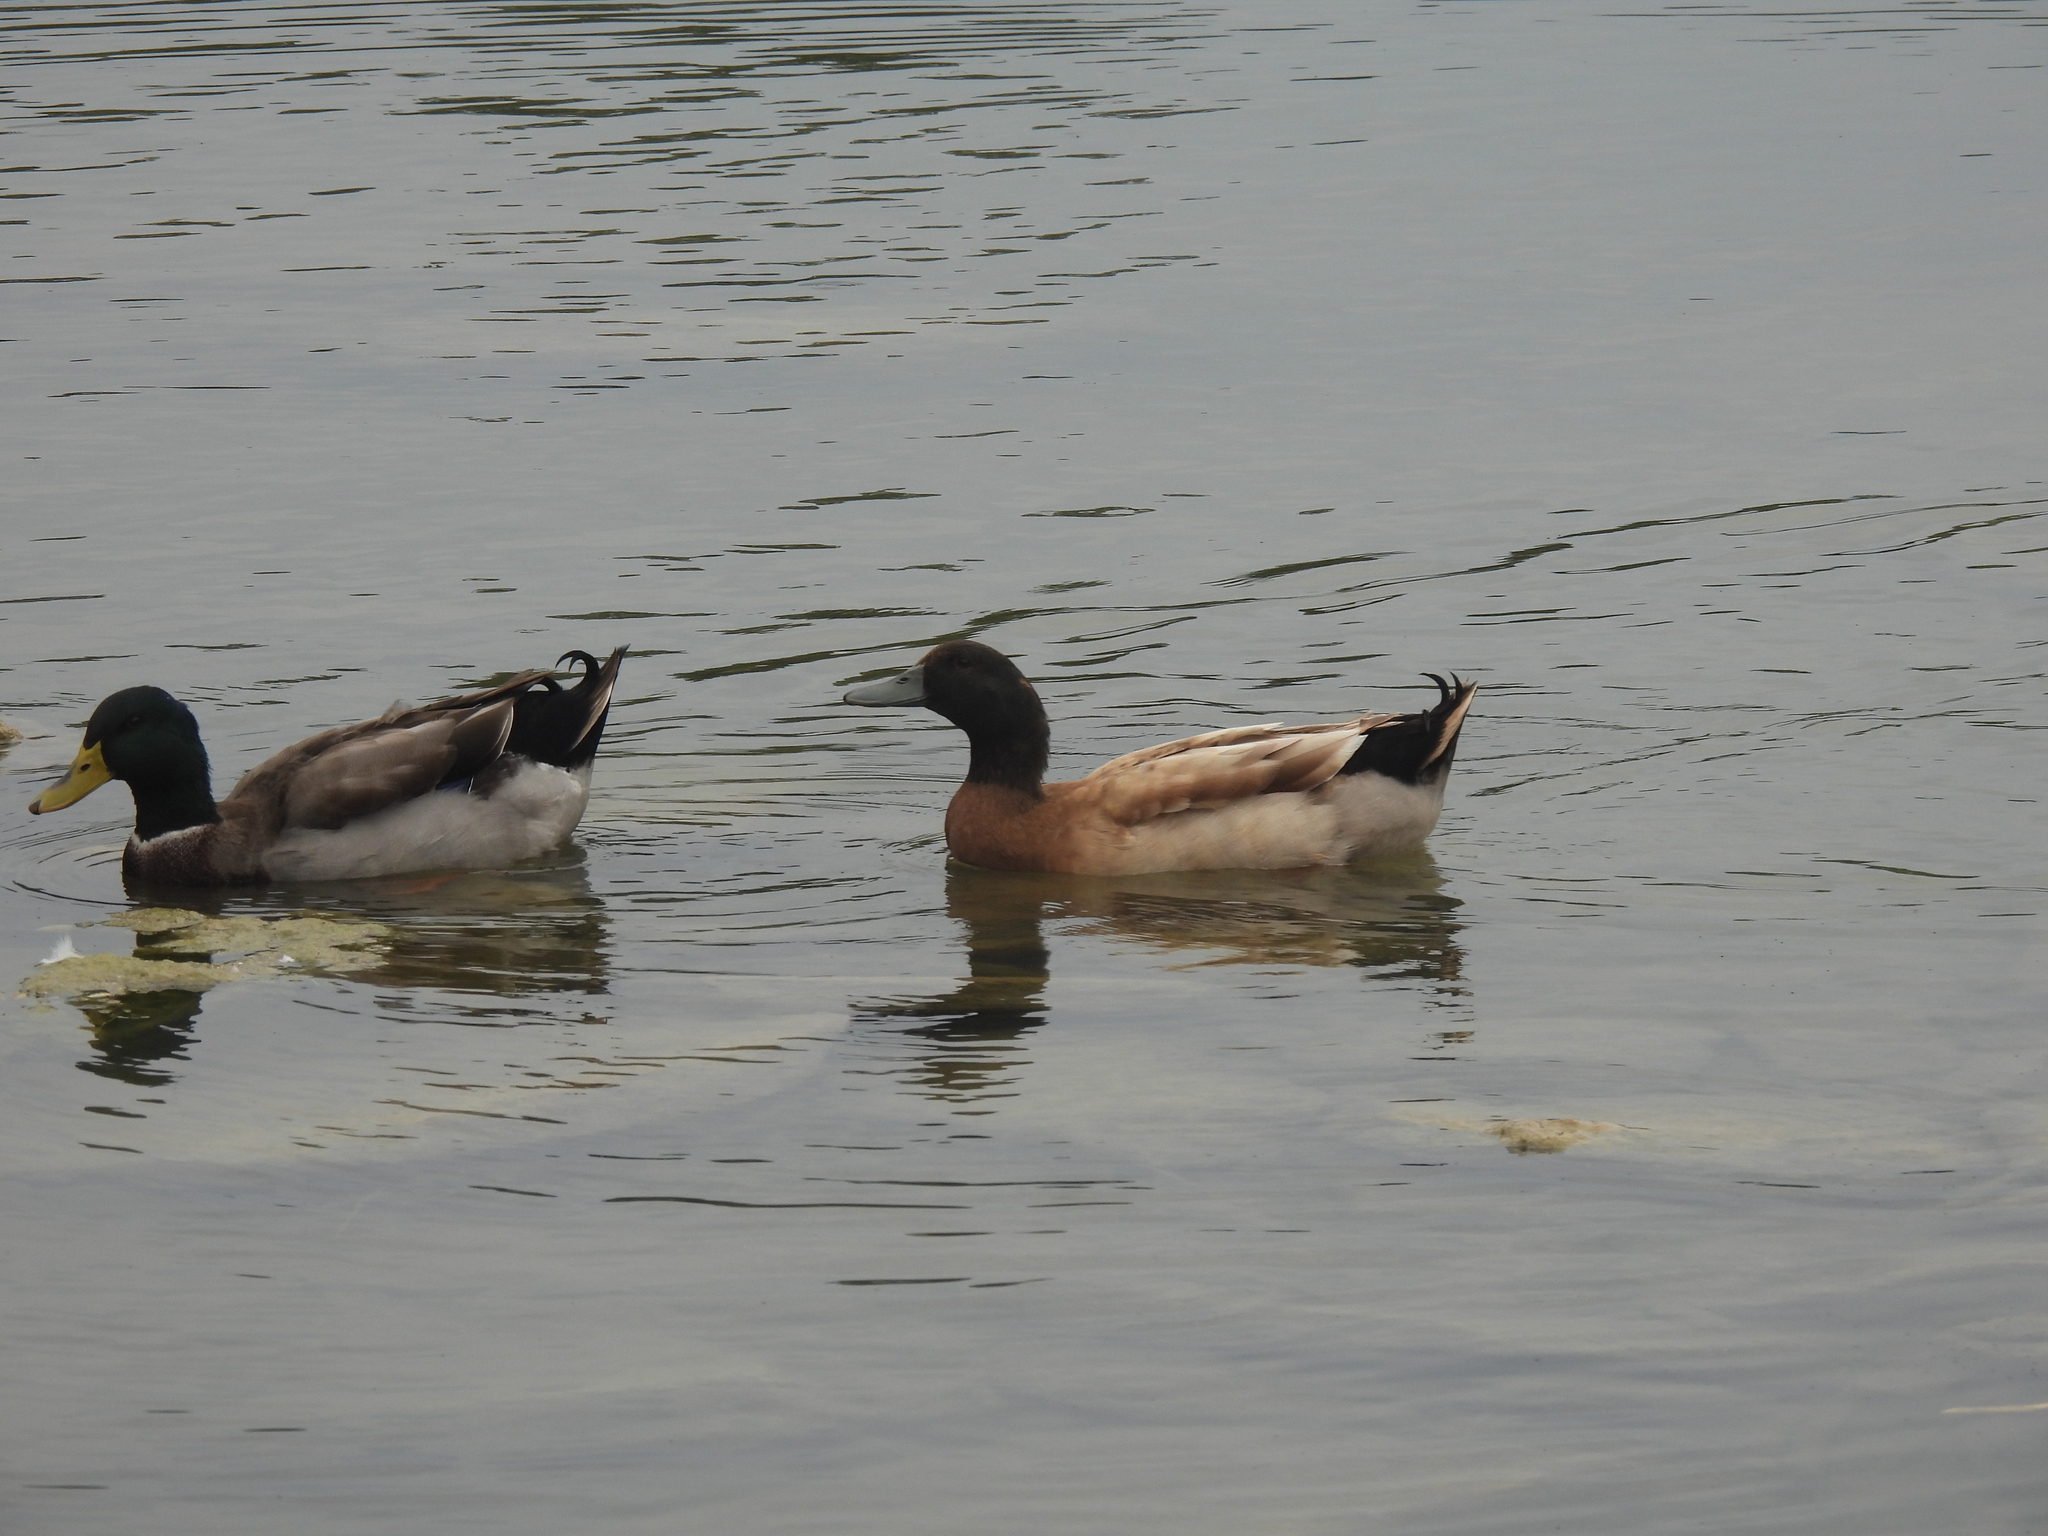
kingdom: Animalia
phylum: Chordata
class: Aves
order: Anseriformes
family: Anatidae
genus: Anas
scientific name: Anas platyrhynchos
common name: Mallard
